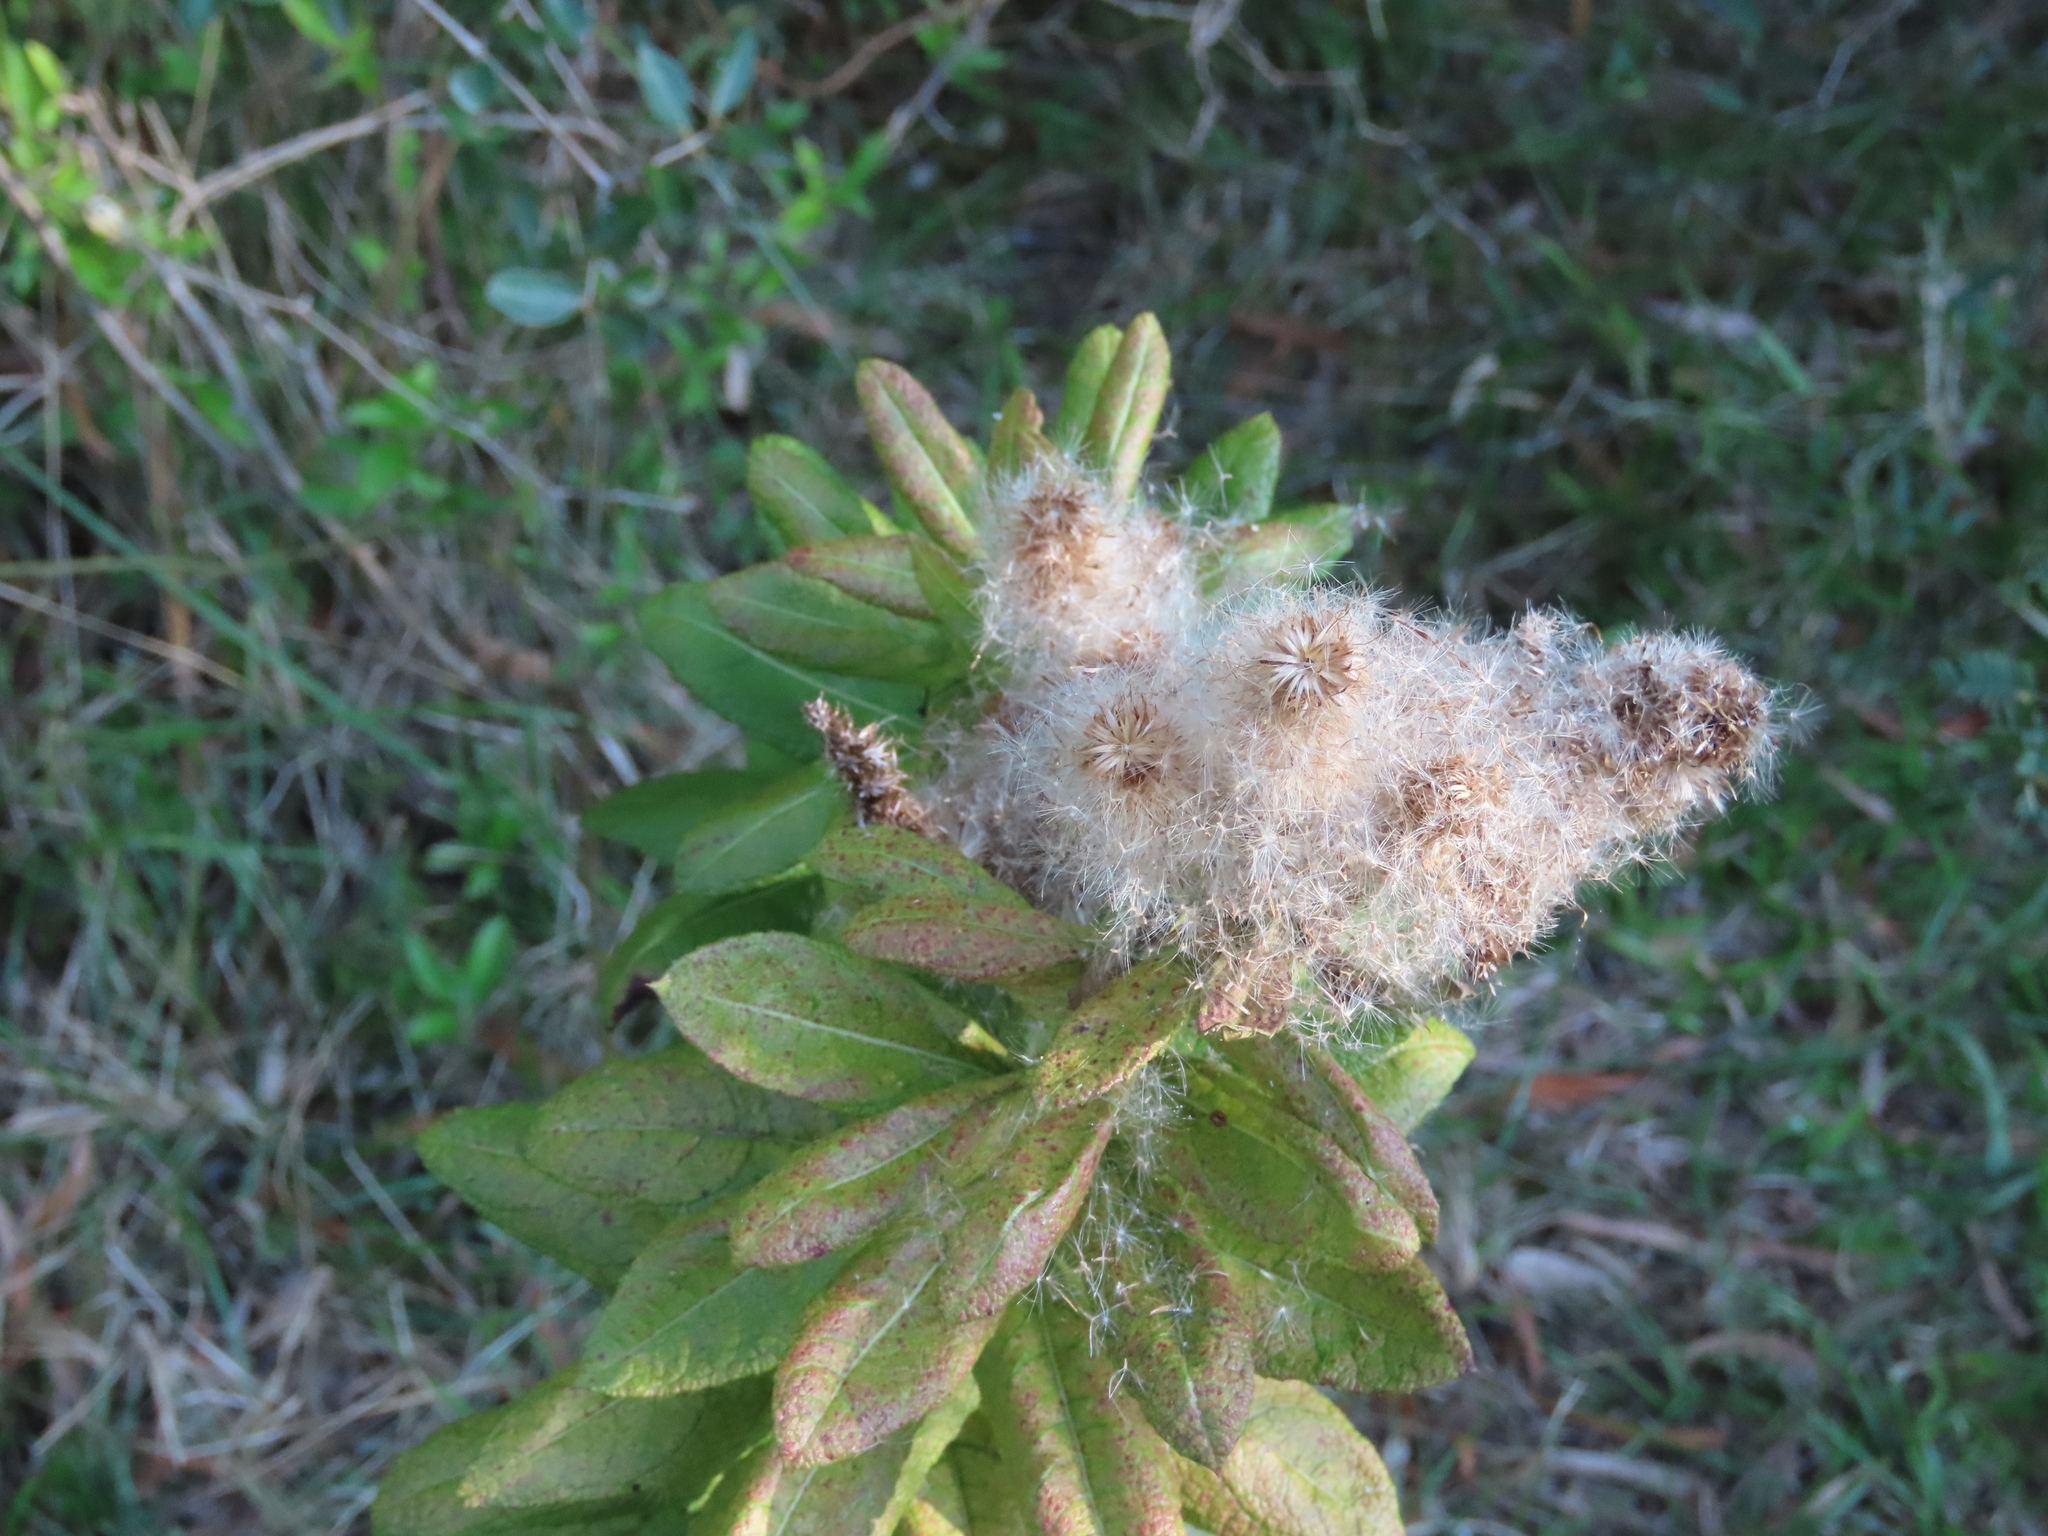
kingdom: Plantae
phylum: Tracheophyta
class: Magnoliopsida
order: Asterales
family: Asteraceae
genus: Pterocaulon
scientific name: Pterocaulon polystachyum
